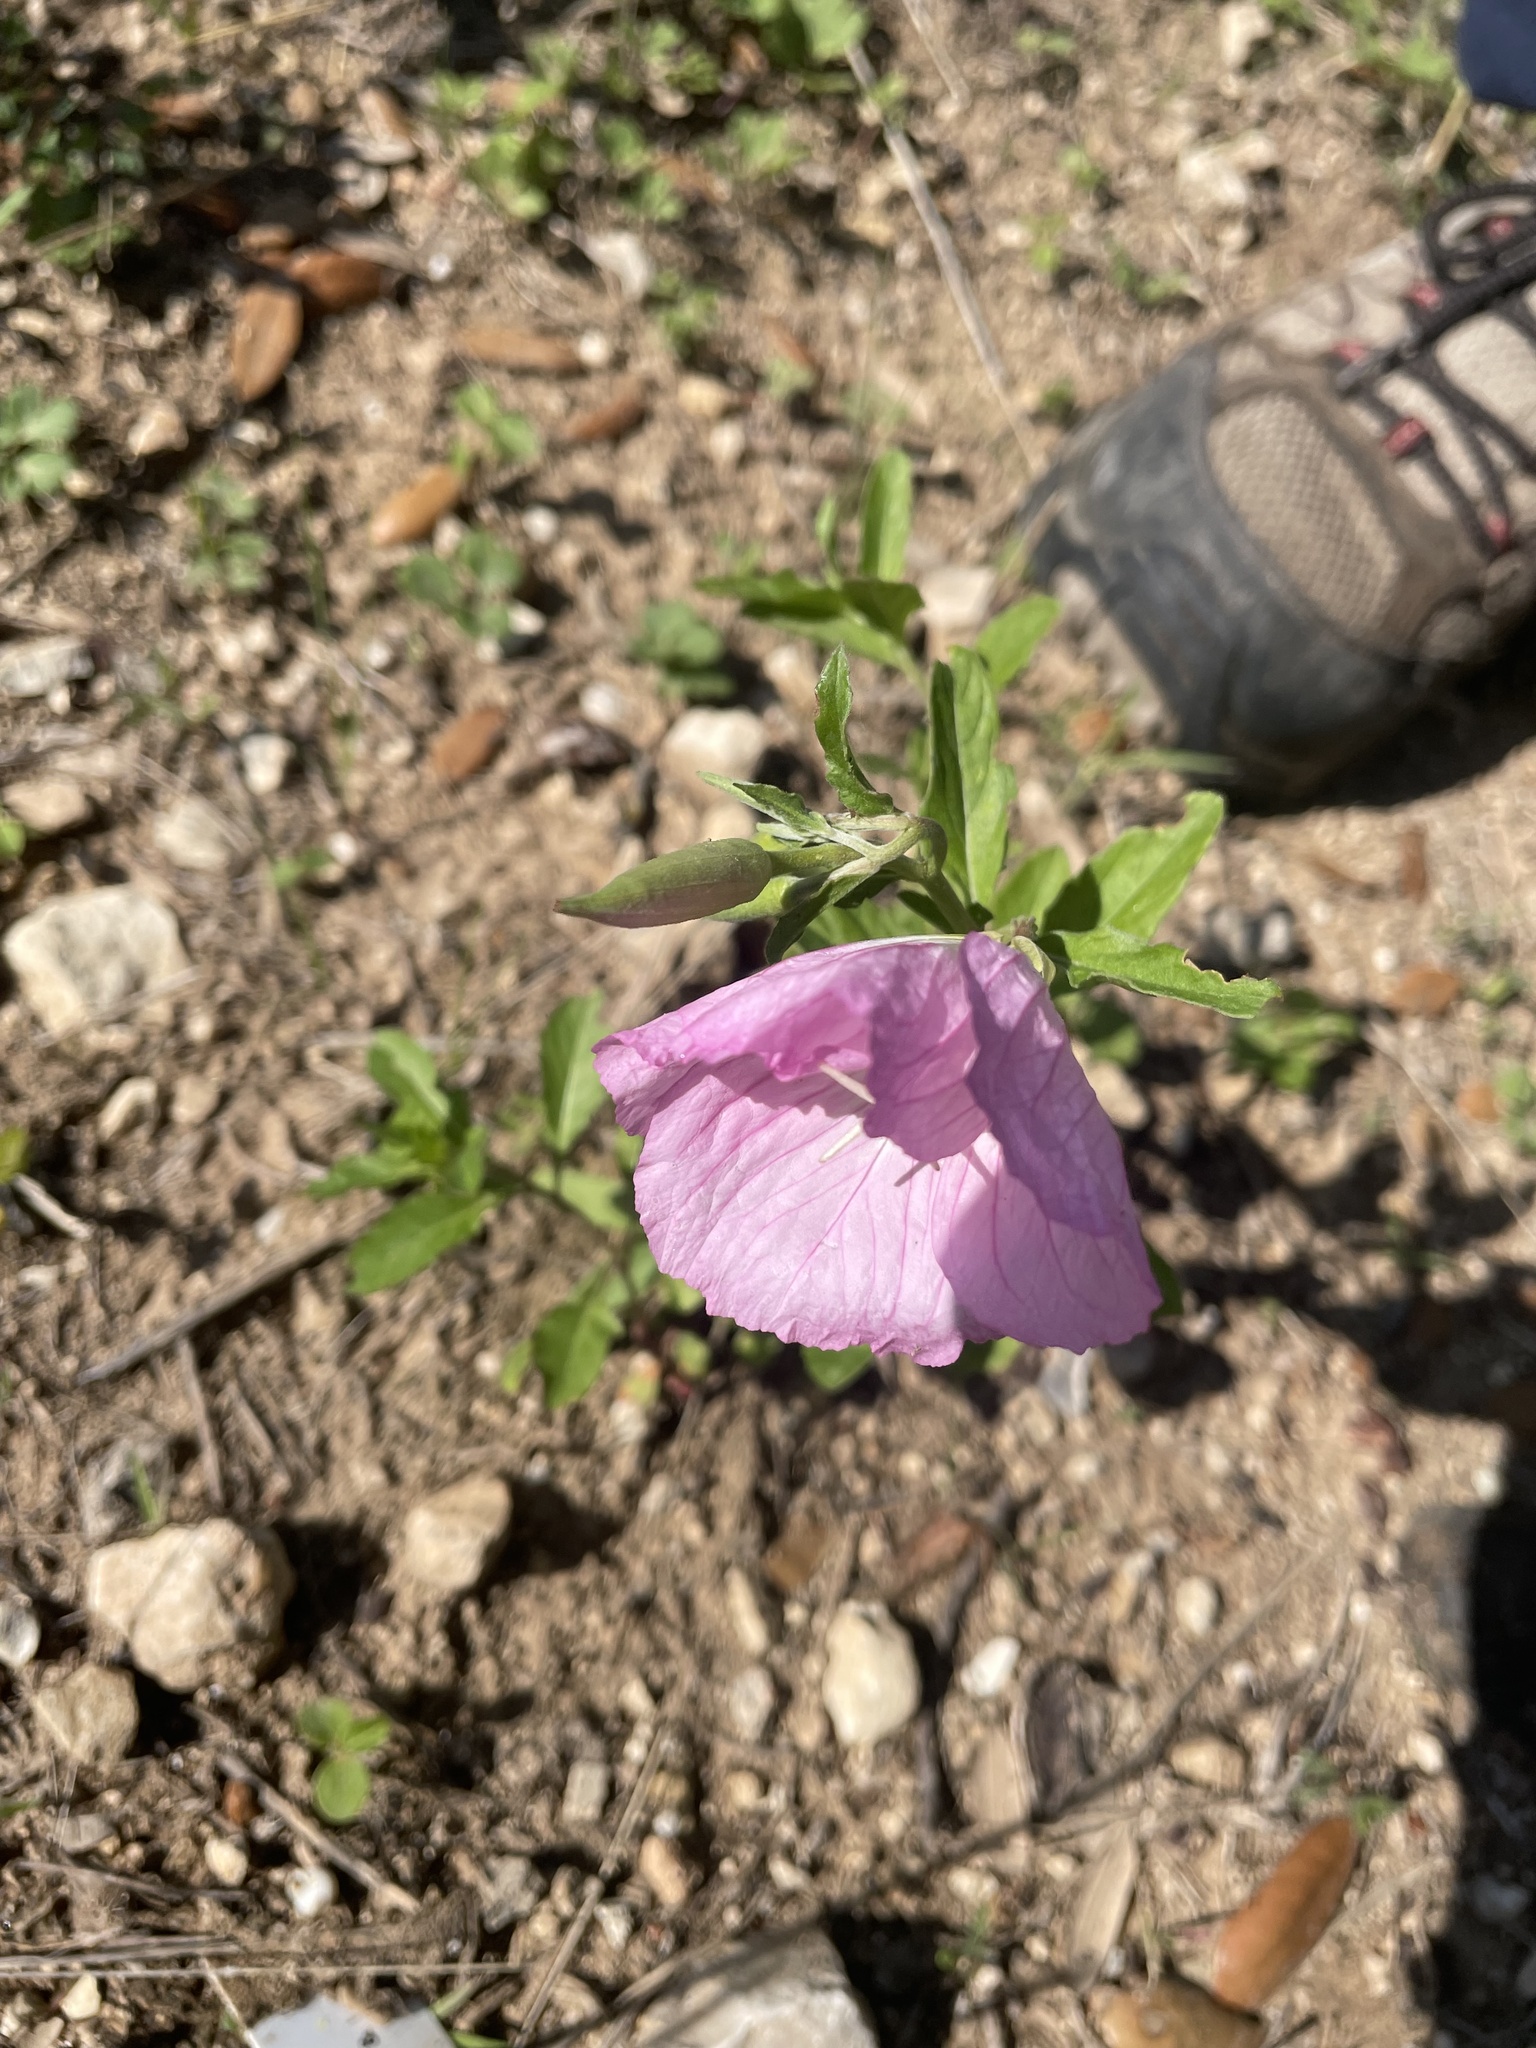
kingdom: Plantae
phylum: Tracheophyta
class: Magnoliopsida
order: Myrtales
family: Onagraceae
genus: Oenothera
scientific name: Oenothera speciosa
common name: White evening-primrose
